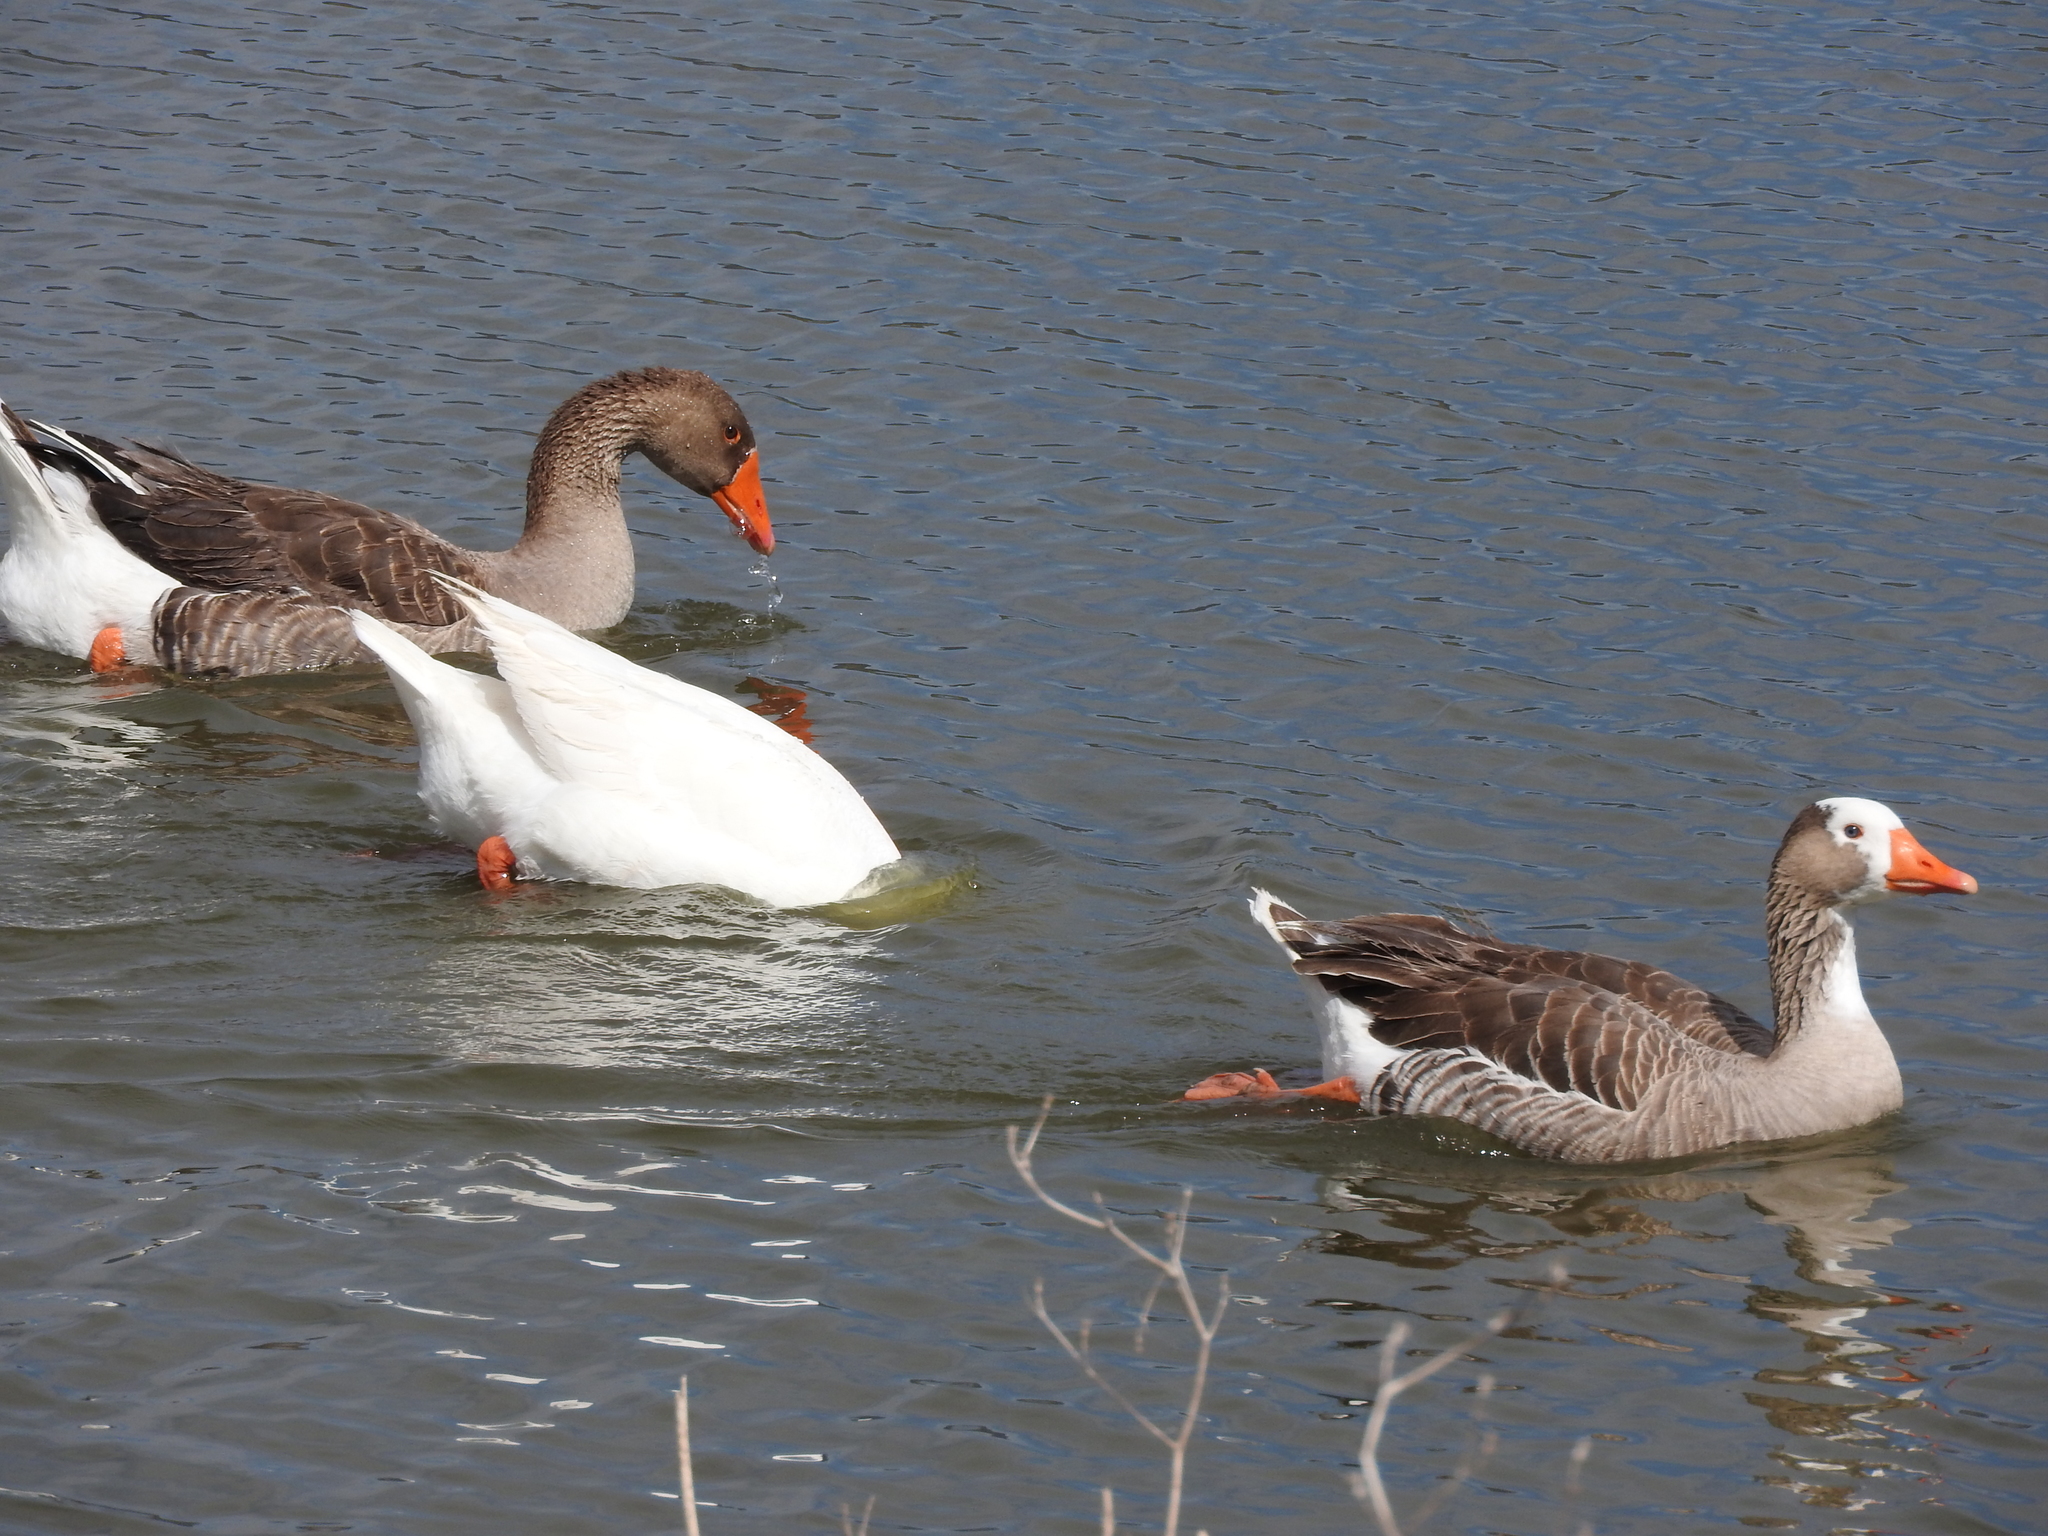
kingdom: Animalia
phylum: Chordata
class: Aves
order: Anseriformes
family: Anatidae
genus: Anser
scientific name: Anser anser
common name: Greylag goose
